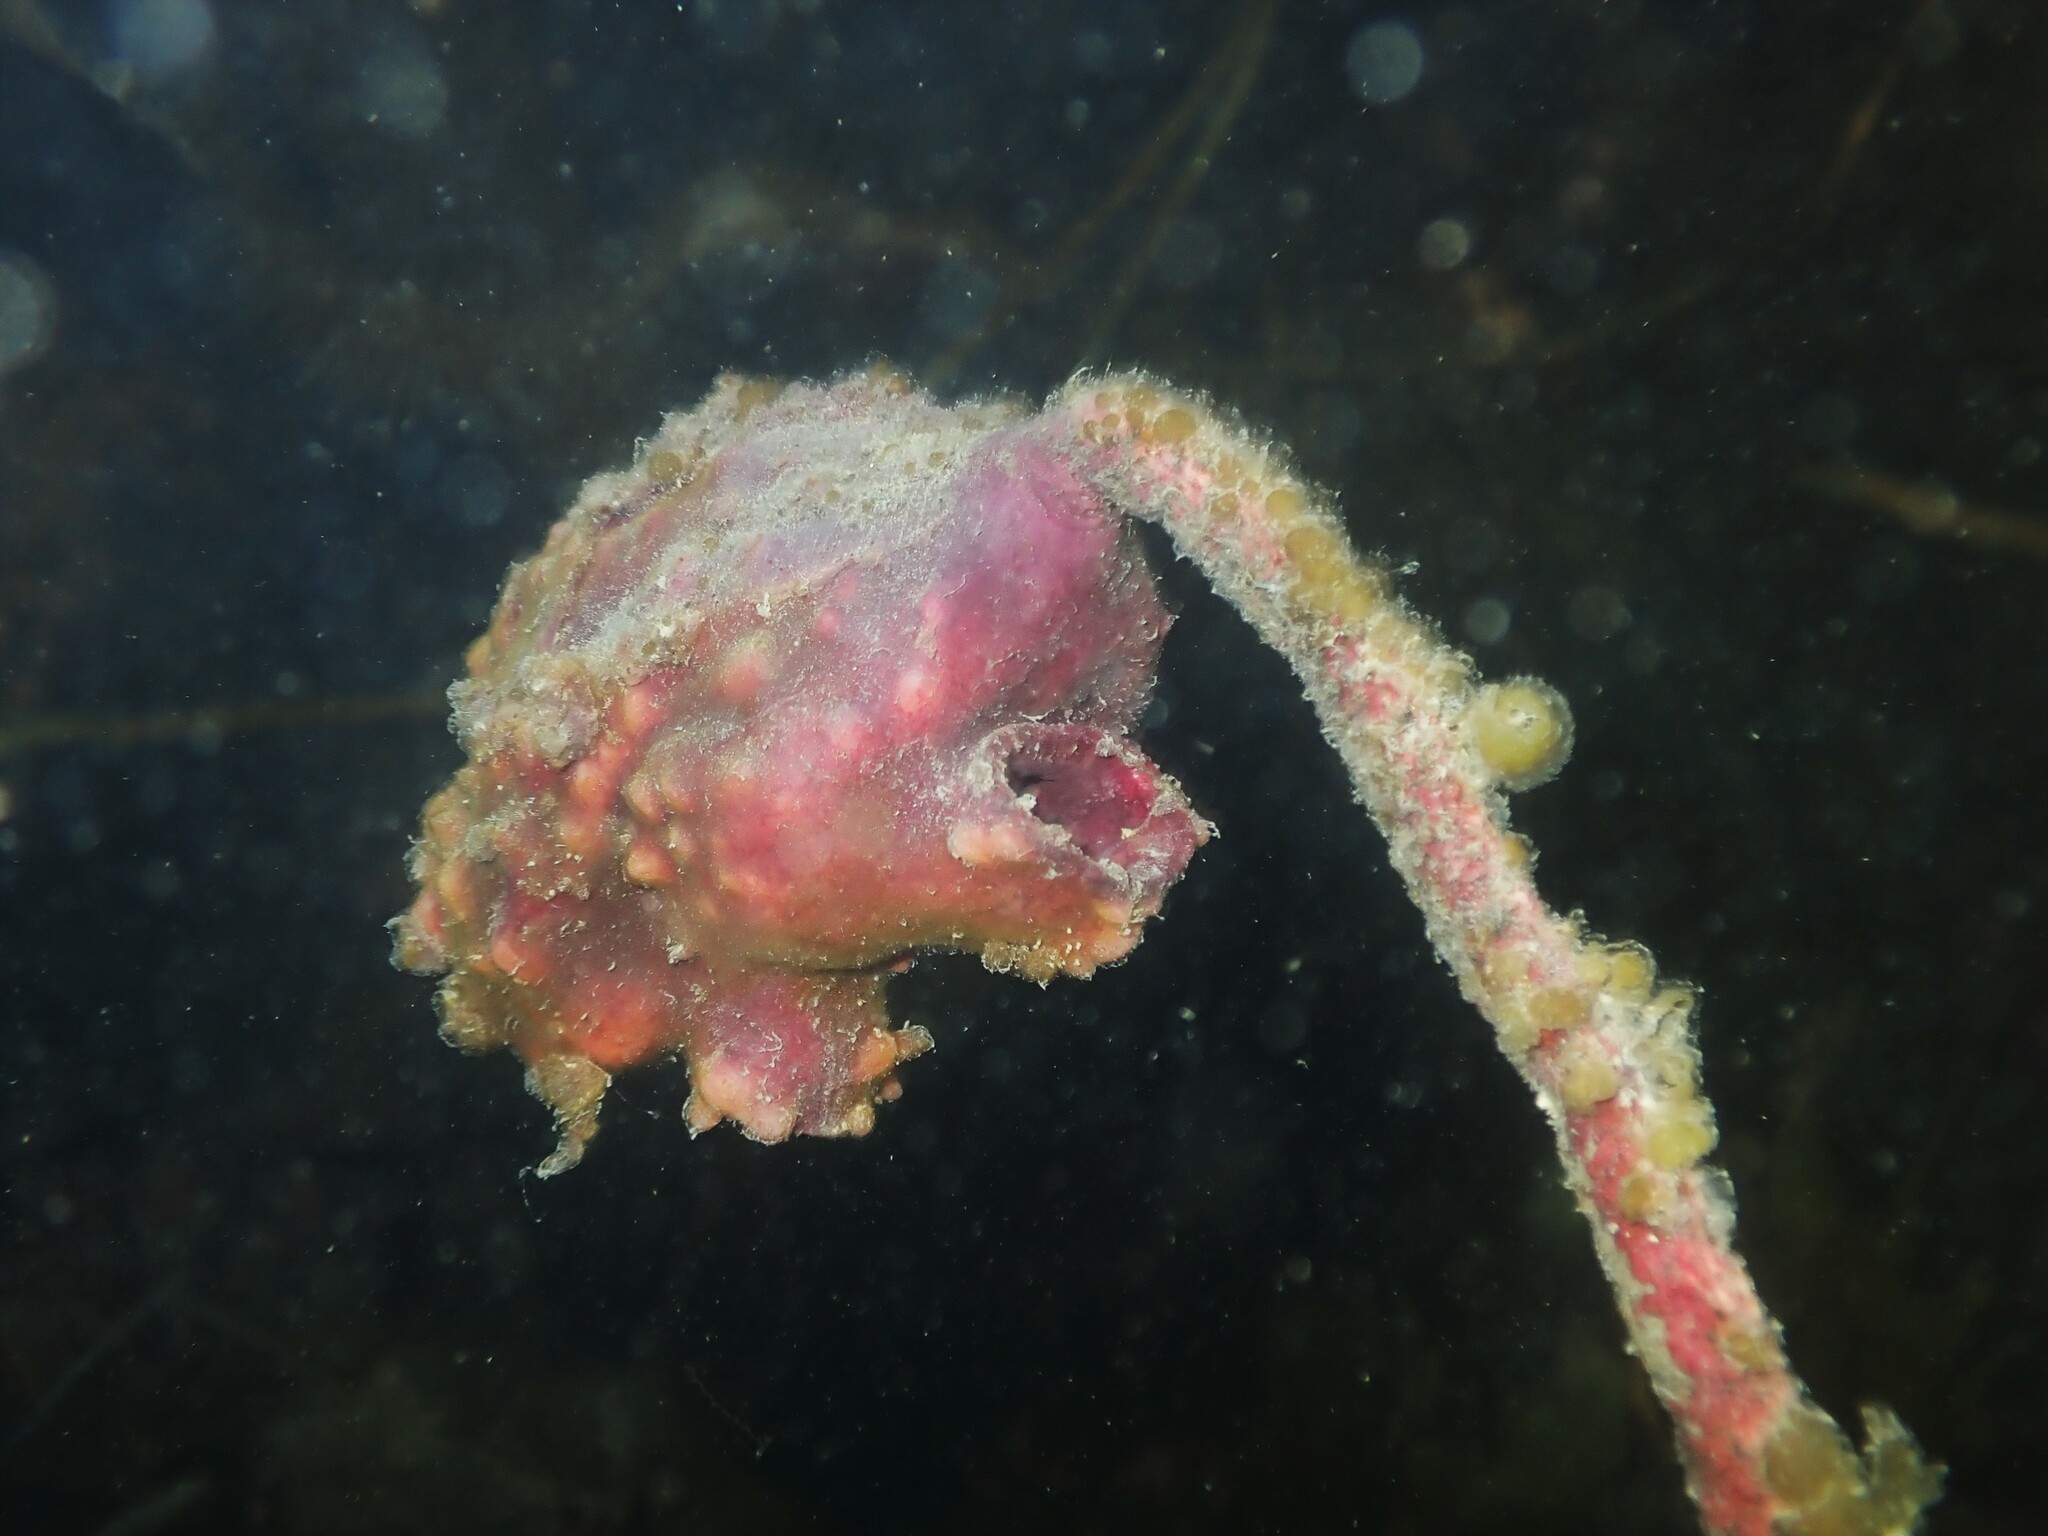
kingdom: Animalia
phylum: Chordata
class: Ascidiacea
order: Stolidobranchia
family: Pyuridae
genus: Pyura
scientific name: Pyura pachydermatina
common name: Sea tulip
